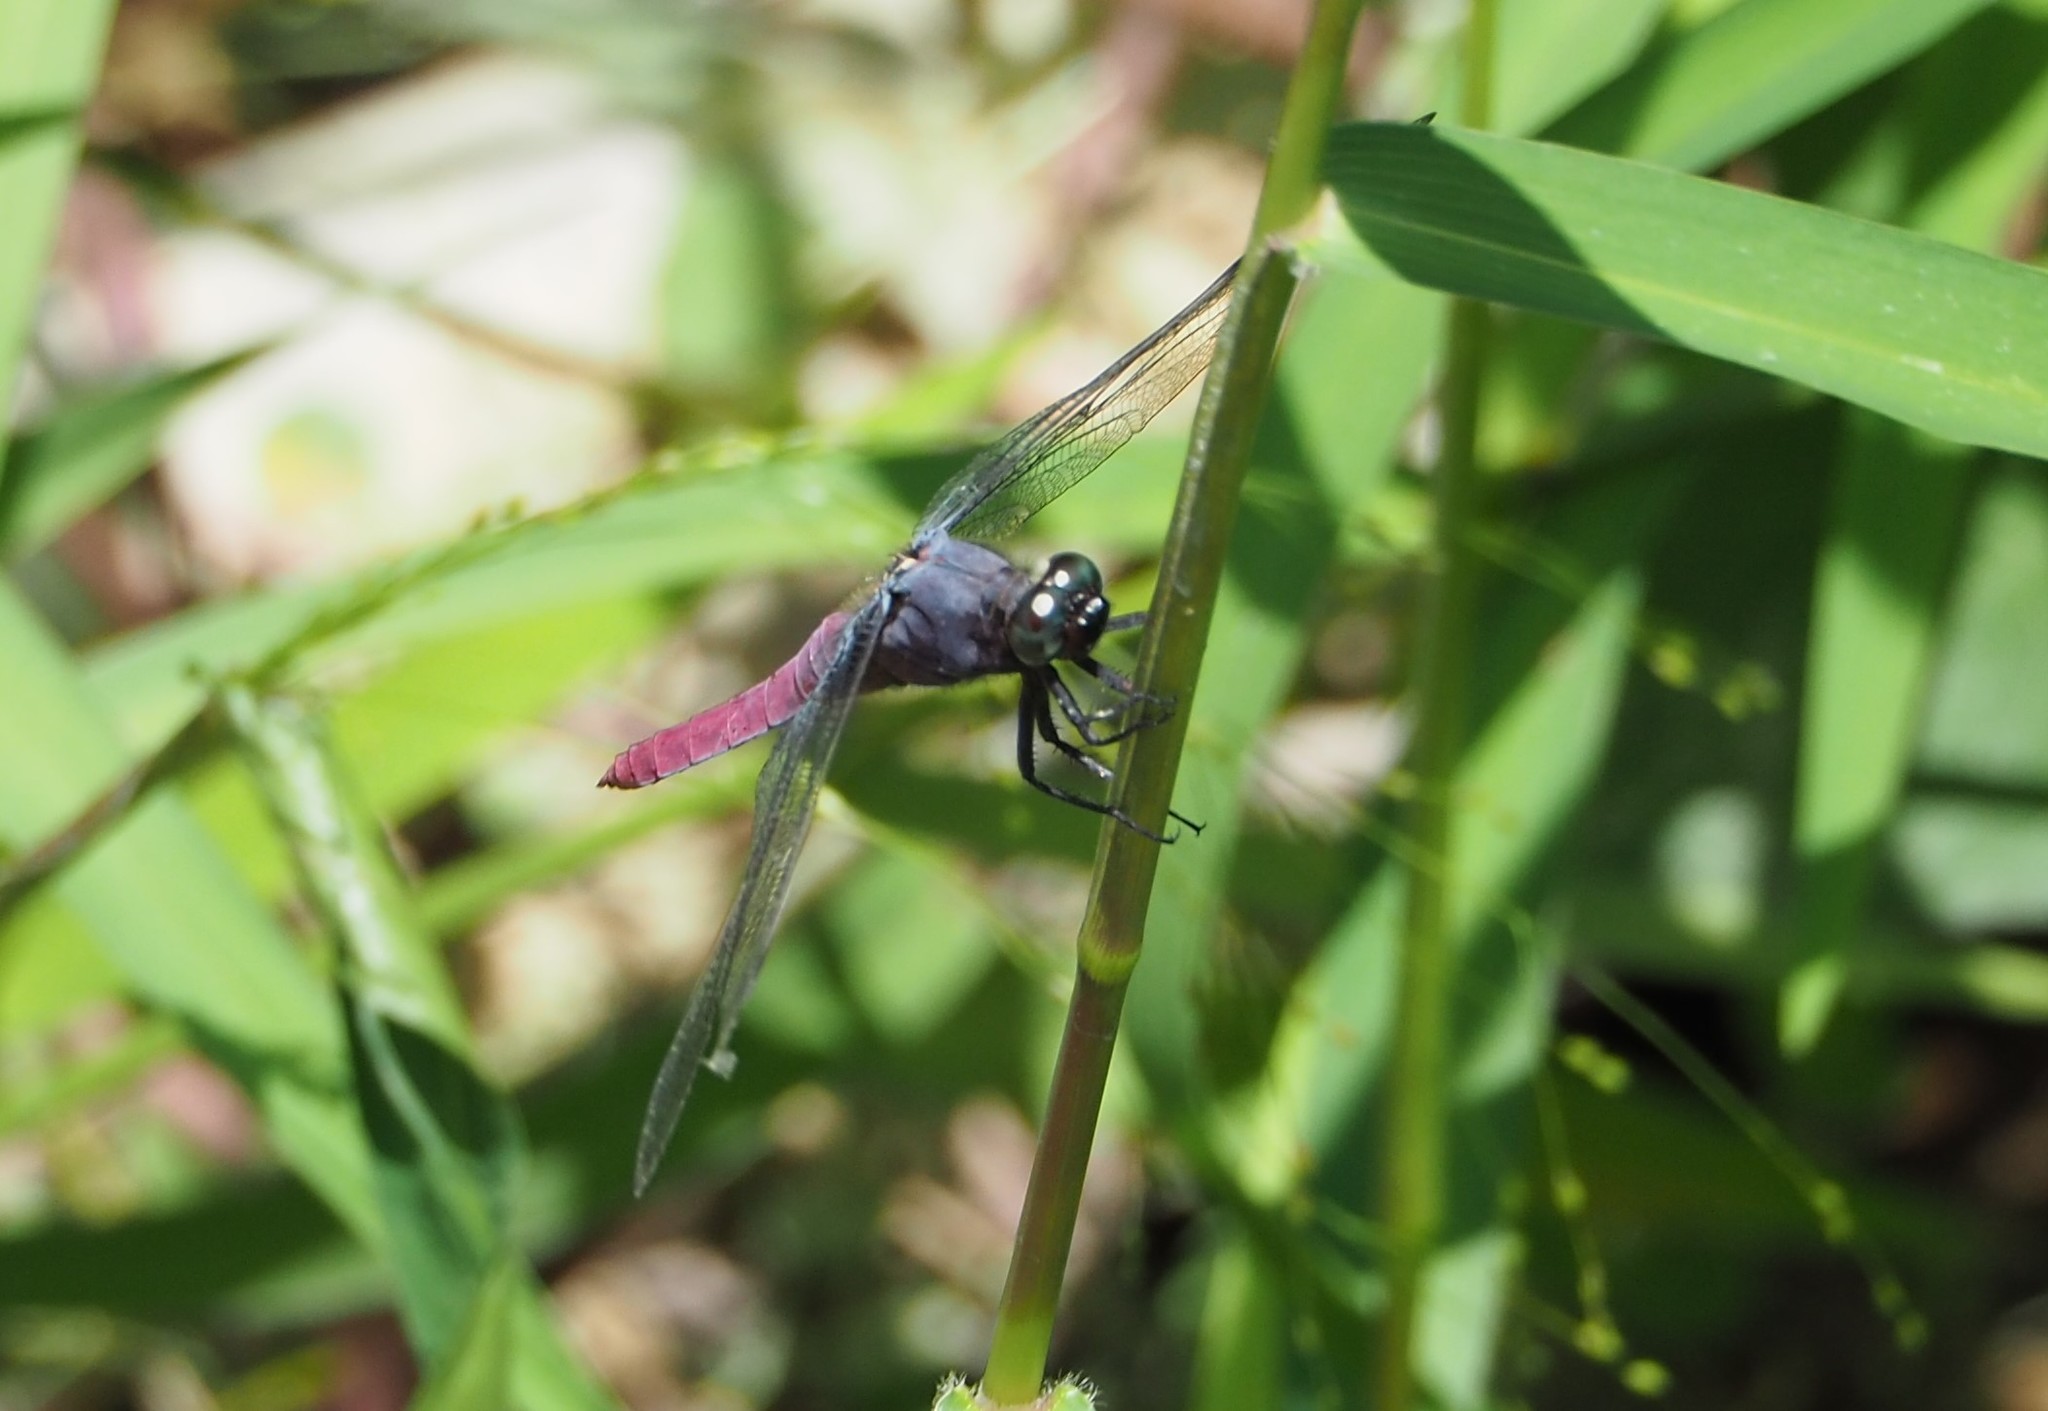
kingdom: Animalia
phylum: Arthropoda
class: Insecta
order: Odonata
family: Libellulidae
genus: Orthetrum
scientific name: Orthetrum pruinosum
